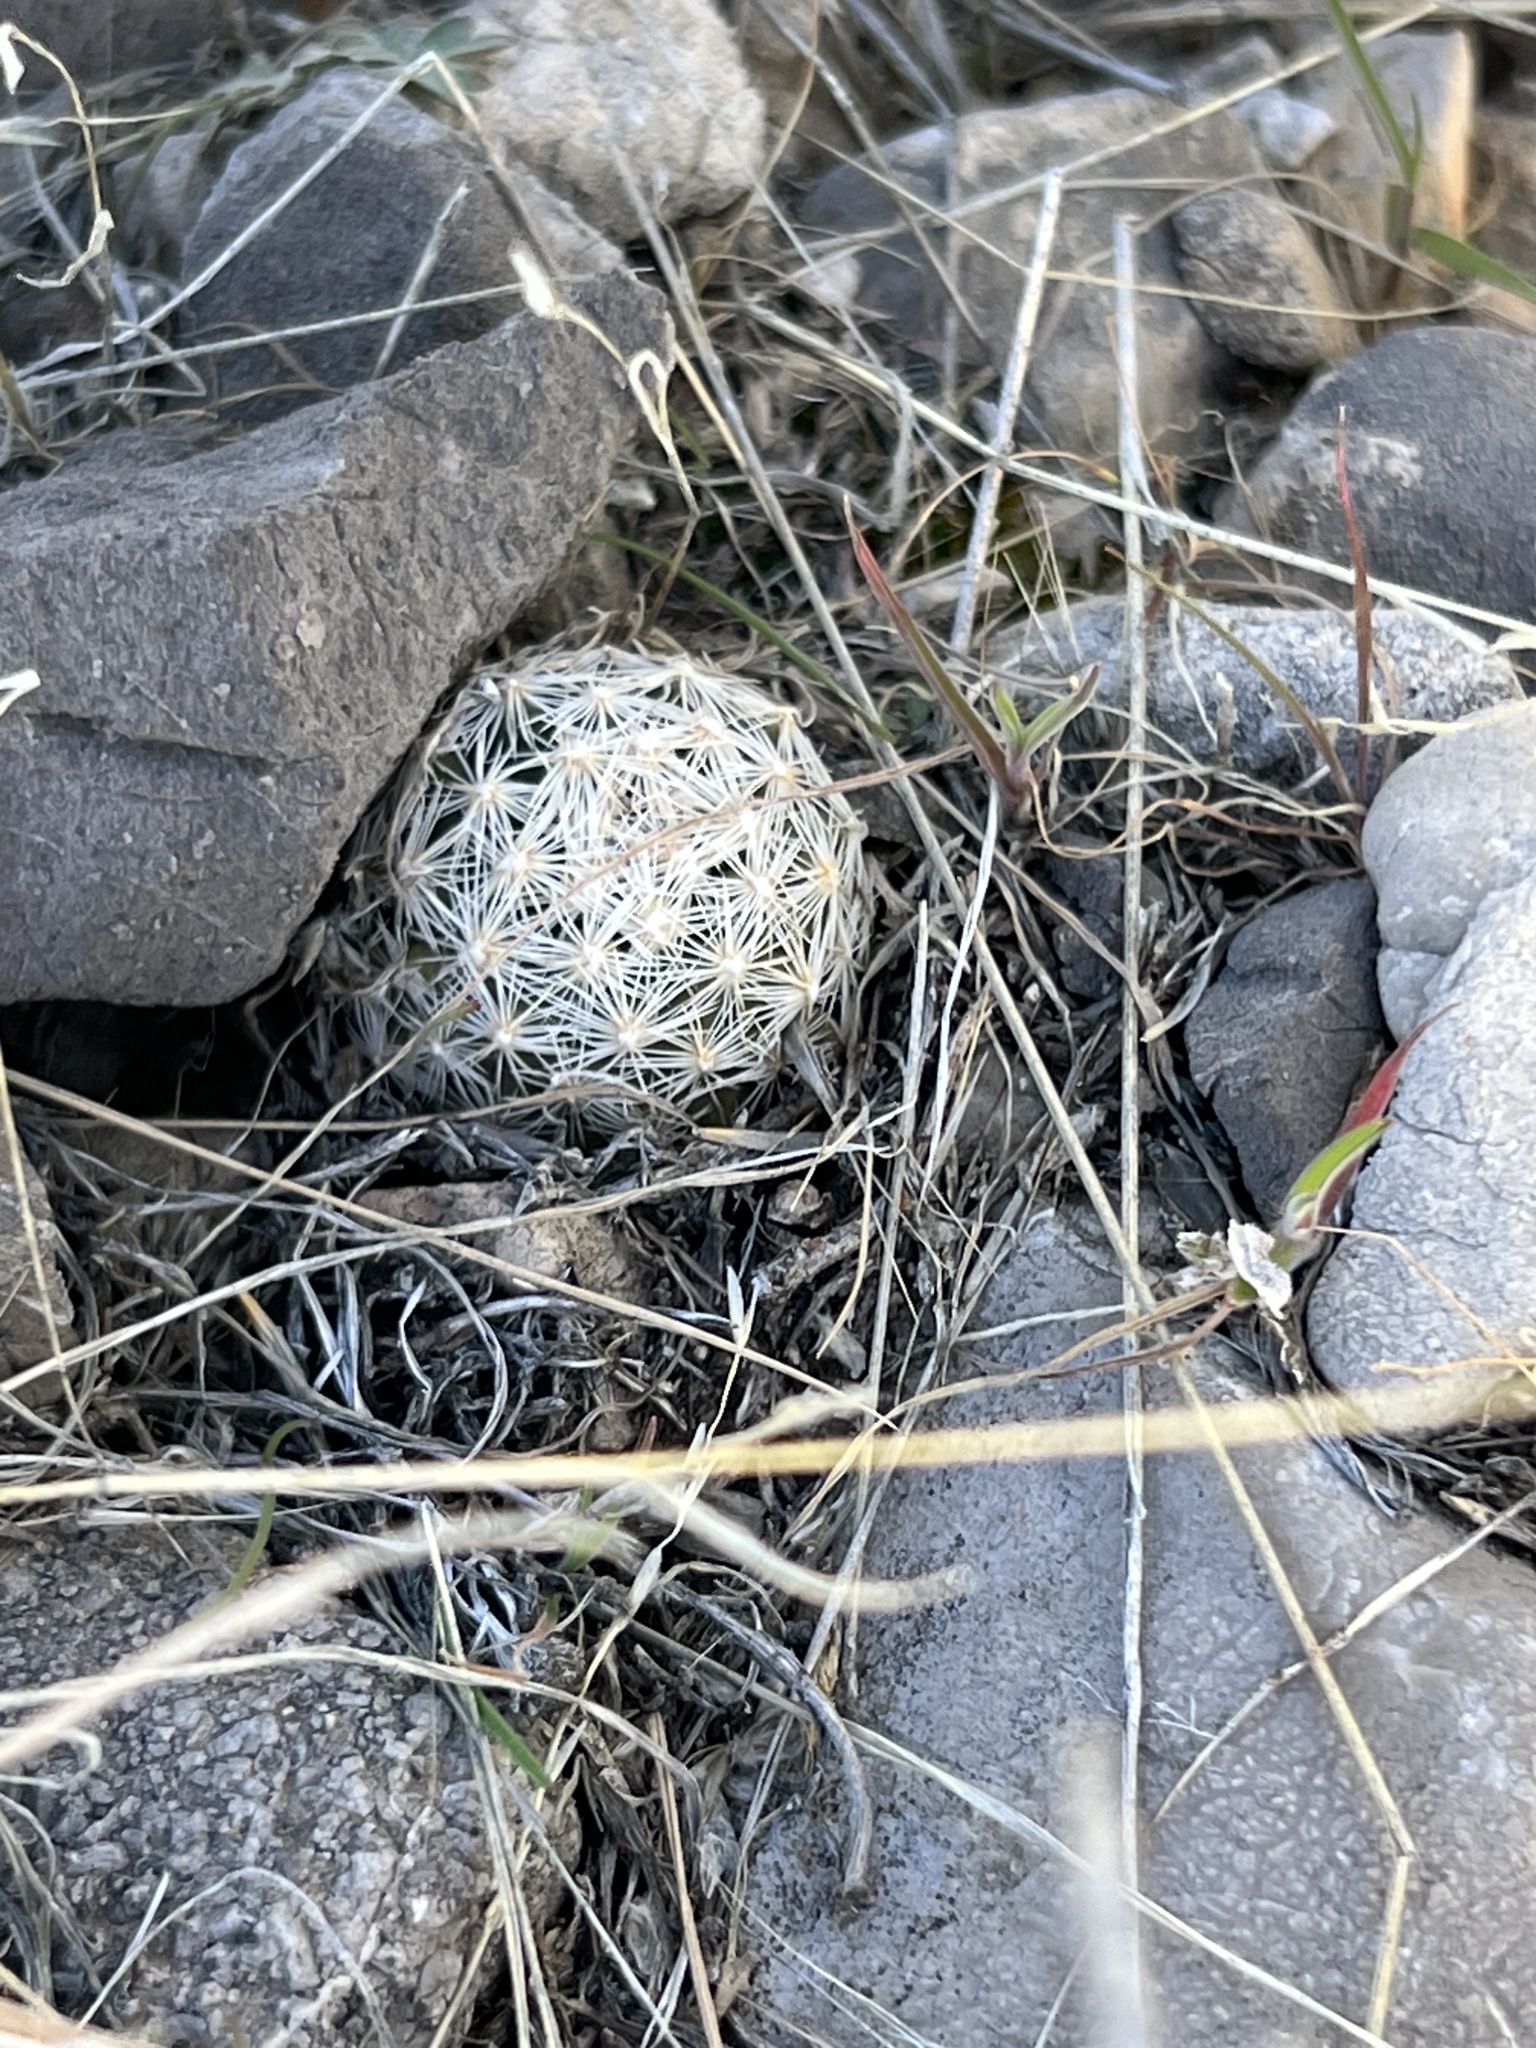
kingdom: Plantae
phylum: Tracheophyta
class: Magnoliopsida
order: Caryophyllales
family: Cactaceae
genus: Pelecyphora
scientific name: Pelecyphora dasyacantha
